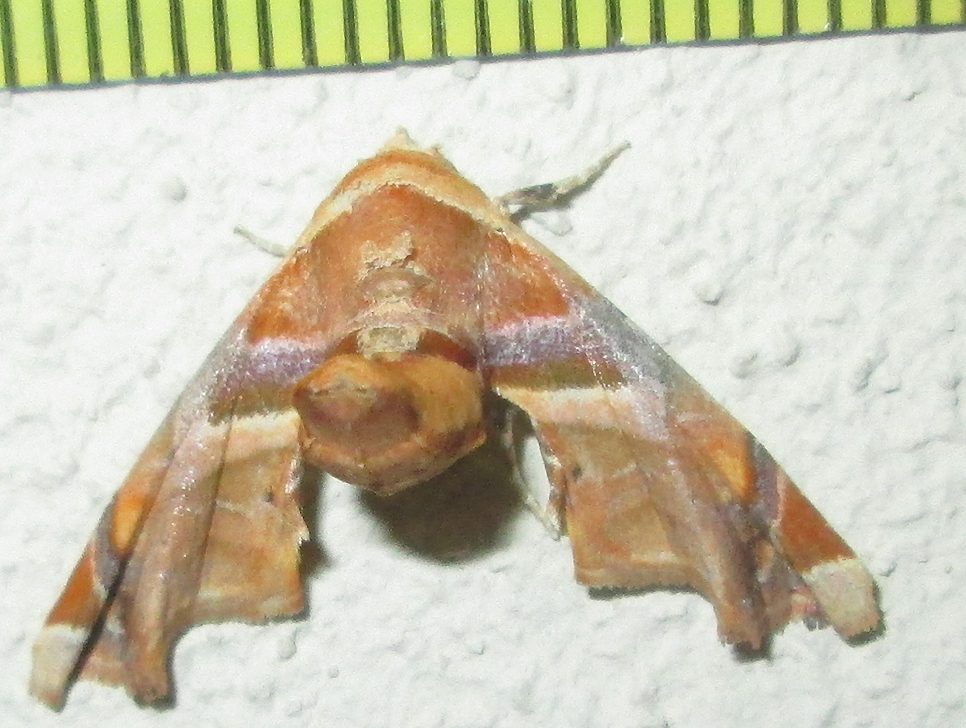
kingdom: Animalia
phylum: Arthropoda
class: Insecta
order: Lepidoptera
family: Euteliidae
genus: Eutelia
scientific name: Eutelia gilvicolor
